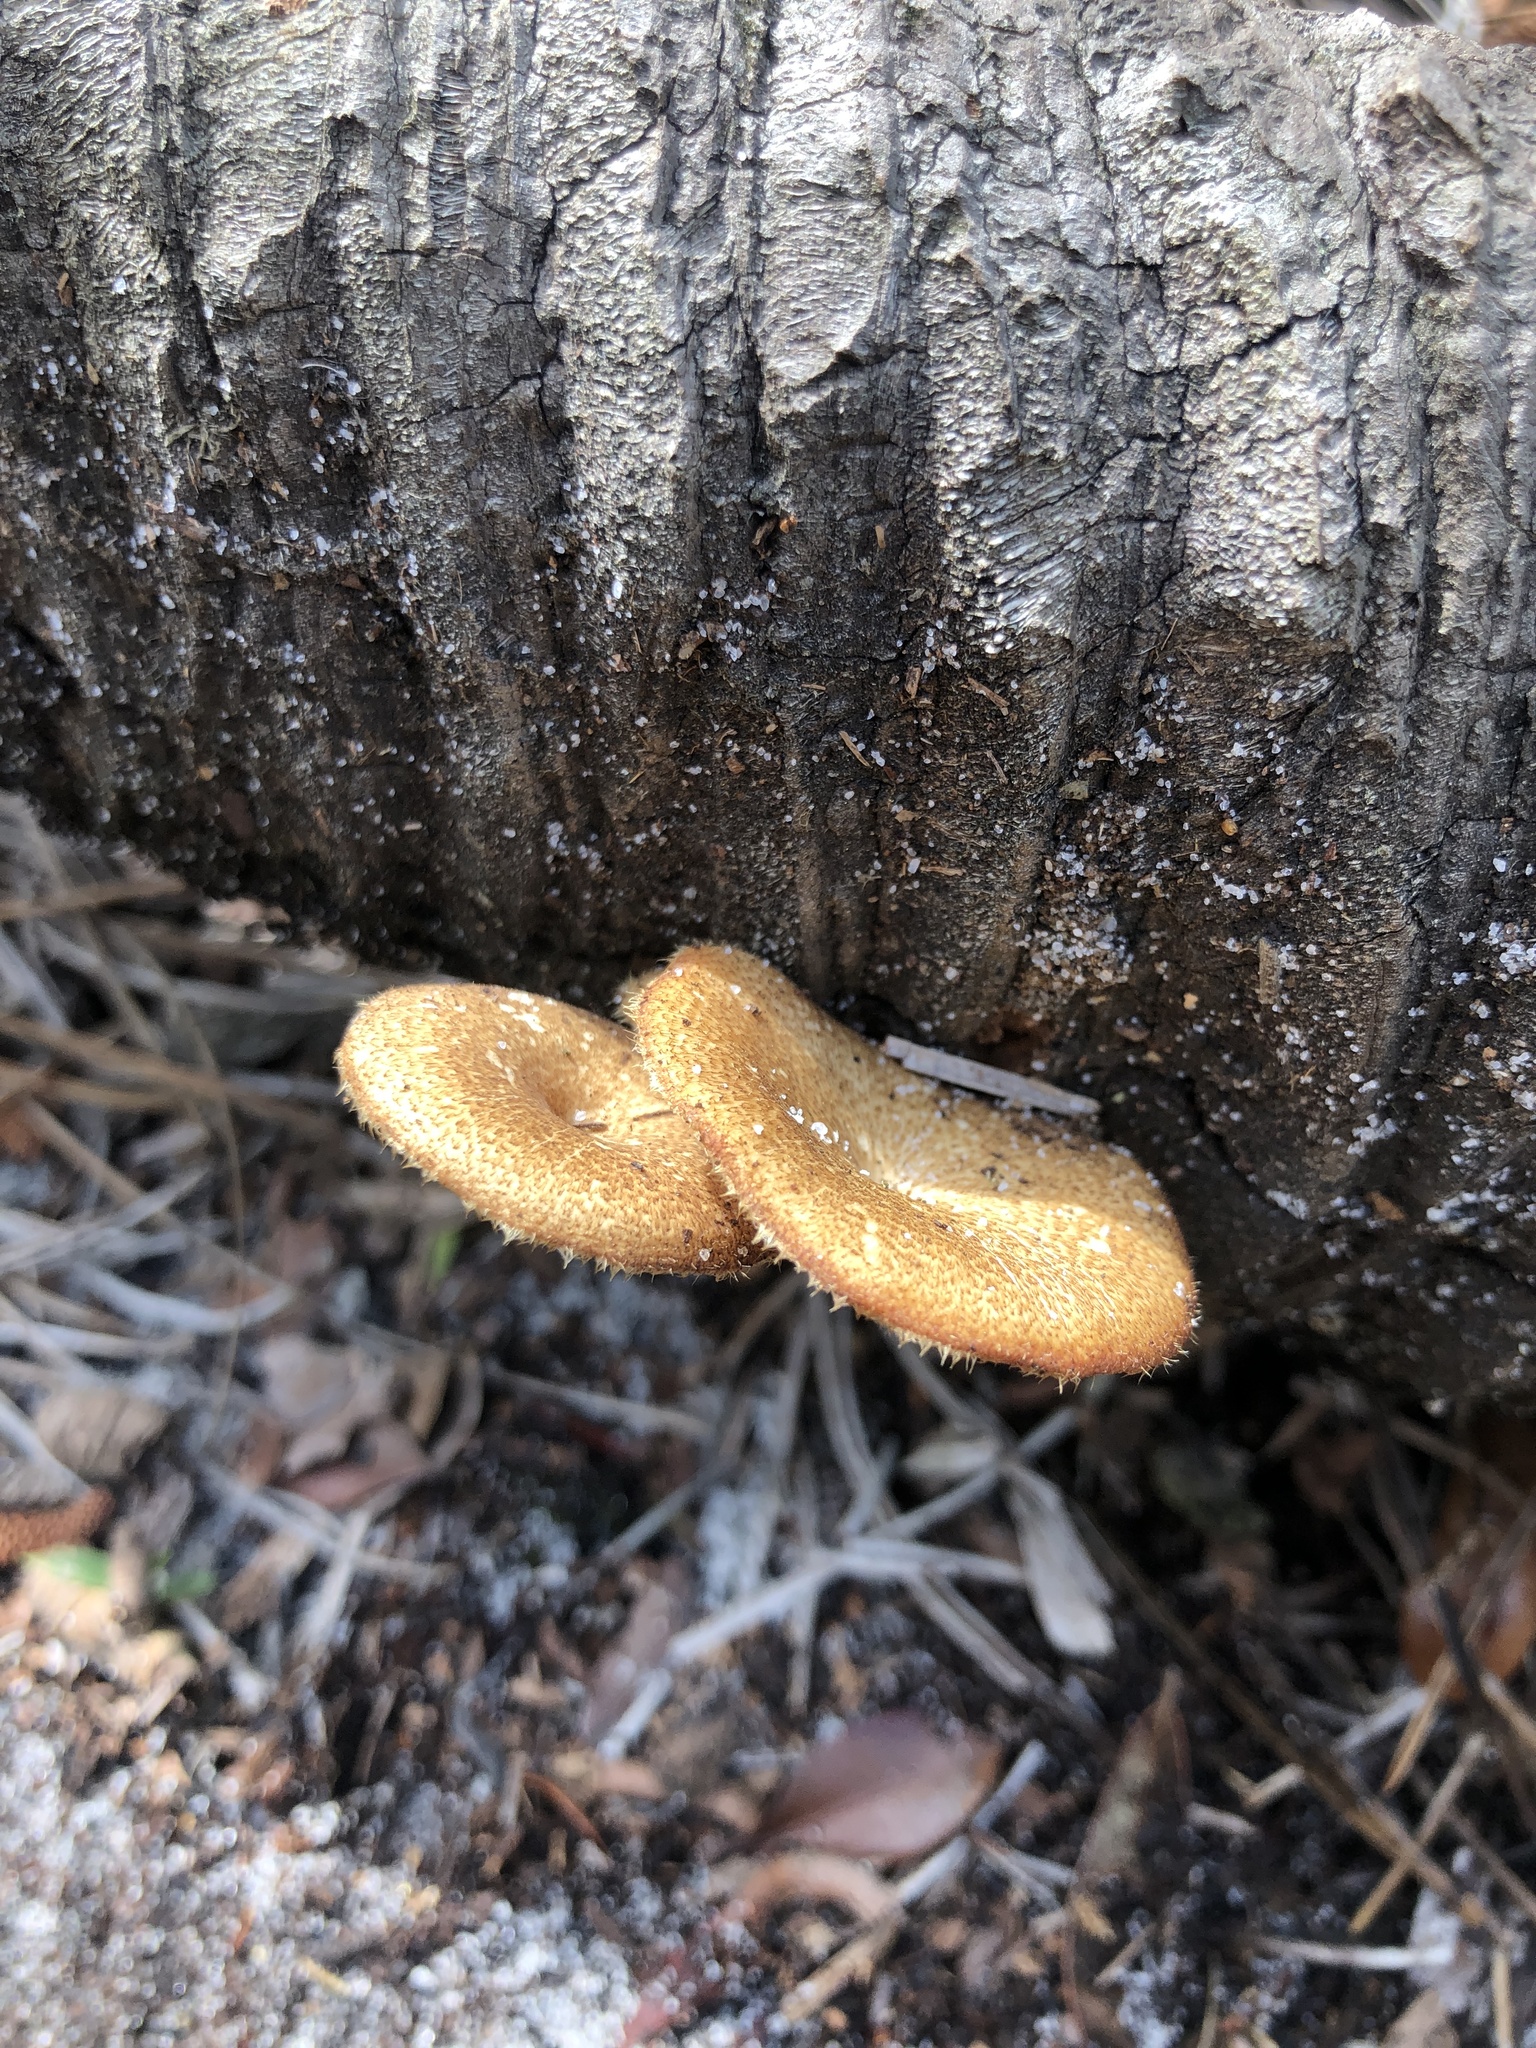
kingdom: Fungi
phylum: Basidiomycota
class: Agaricomycetes
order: Polyporales
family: Polyporaceae
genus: Lentinus
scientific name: Lentinus arcularius
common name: Spring polypore
